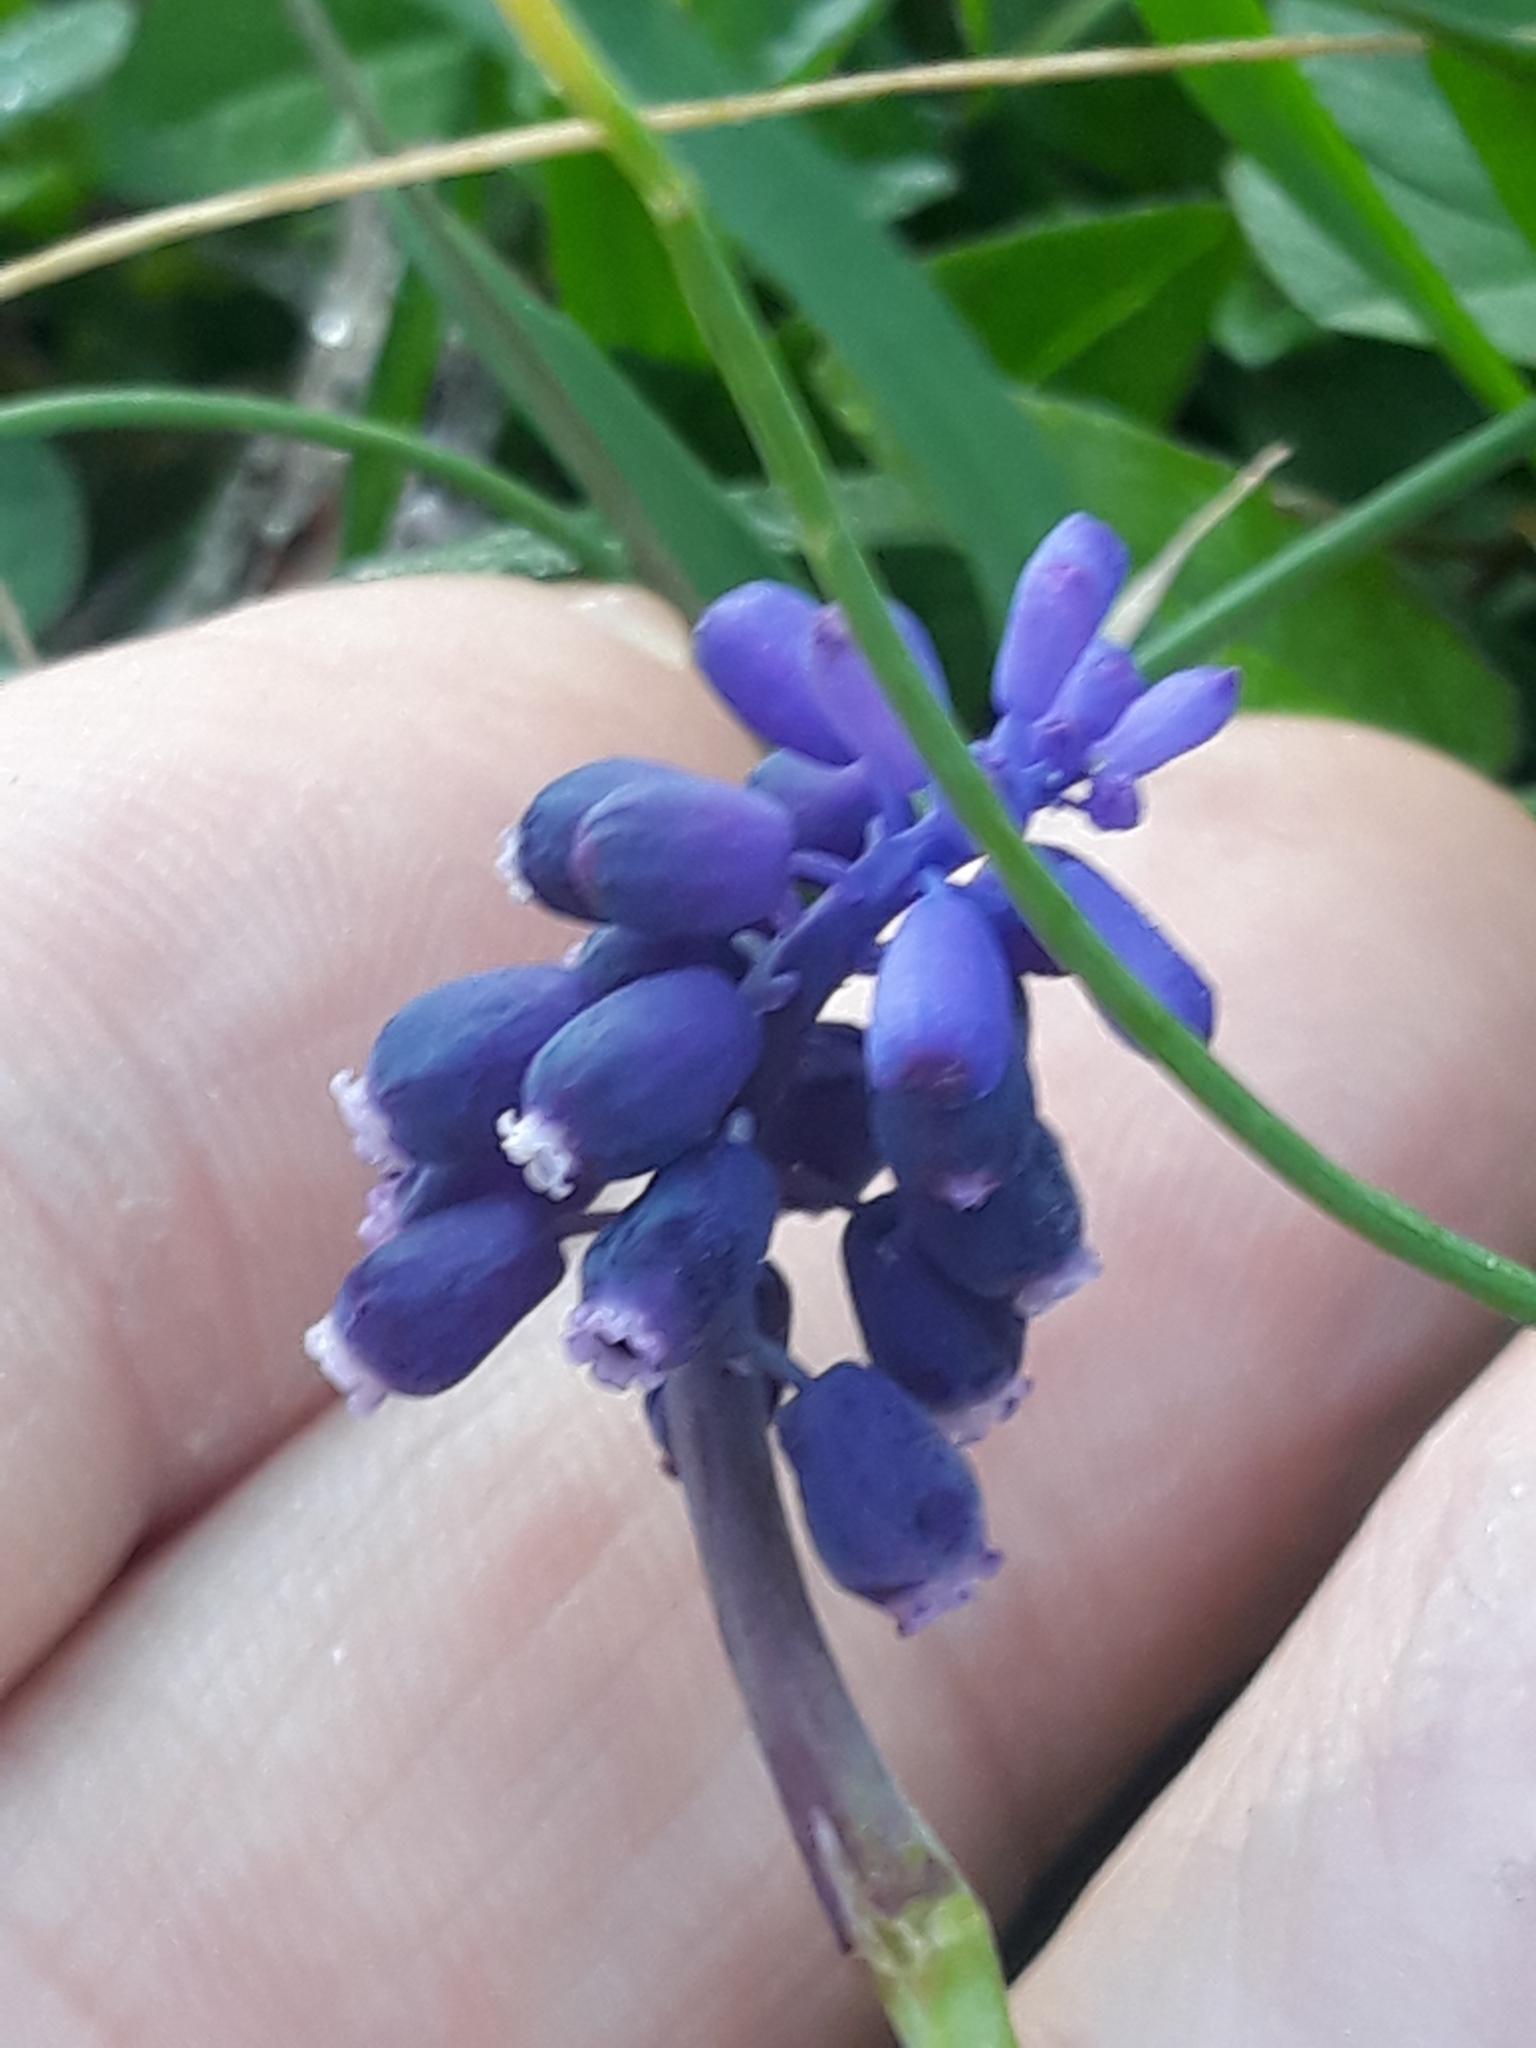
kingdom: Plantae
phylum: Tracheophyta
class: Liliopsida
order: Asparagales
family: Asparagaceae
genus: Muscari
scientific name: Muscari neglectum
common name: Grape-hyacinth
